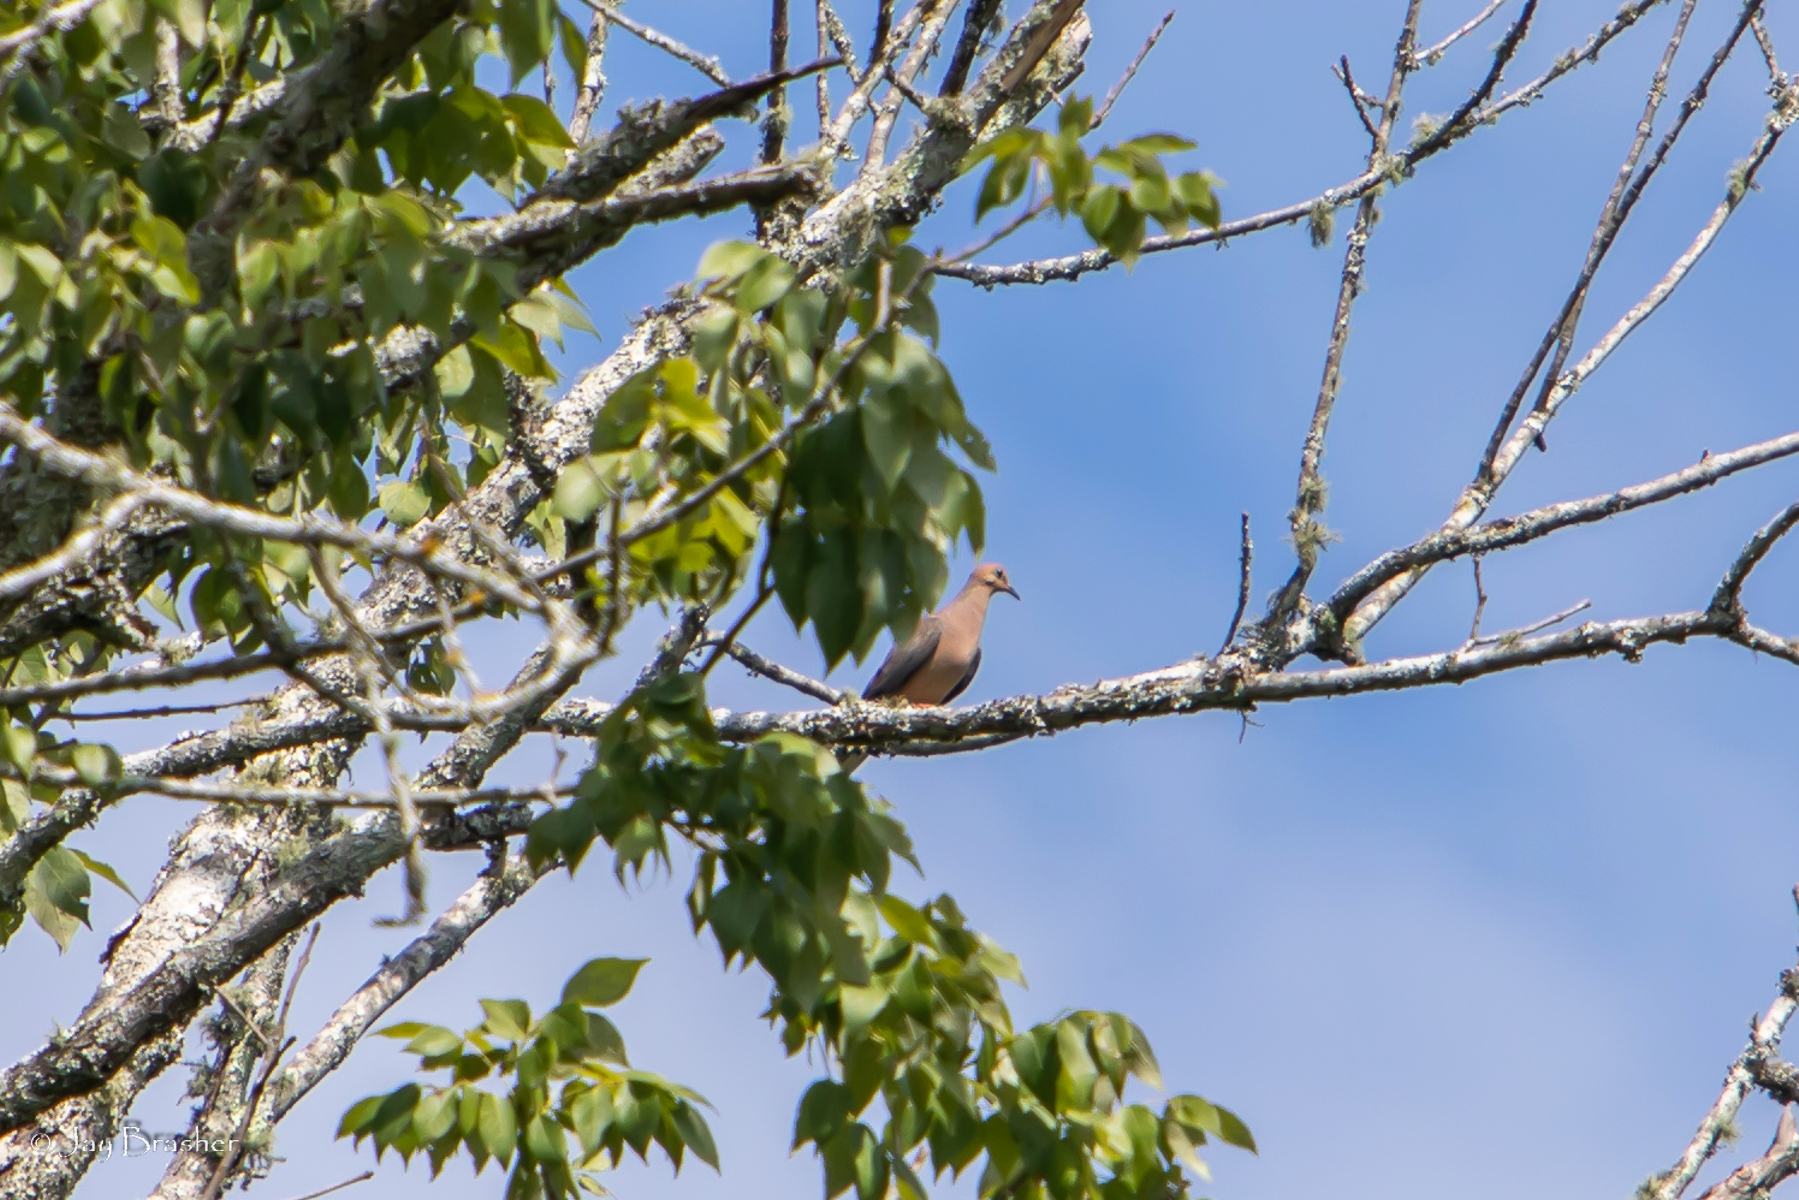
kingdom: Animalia
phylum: Chordata
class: Aves
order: Columbiformes
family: Columbidae
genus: Zenaida
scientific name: Zenaida macroura
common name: Mourning dove
